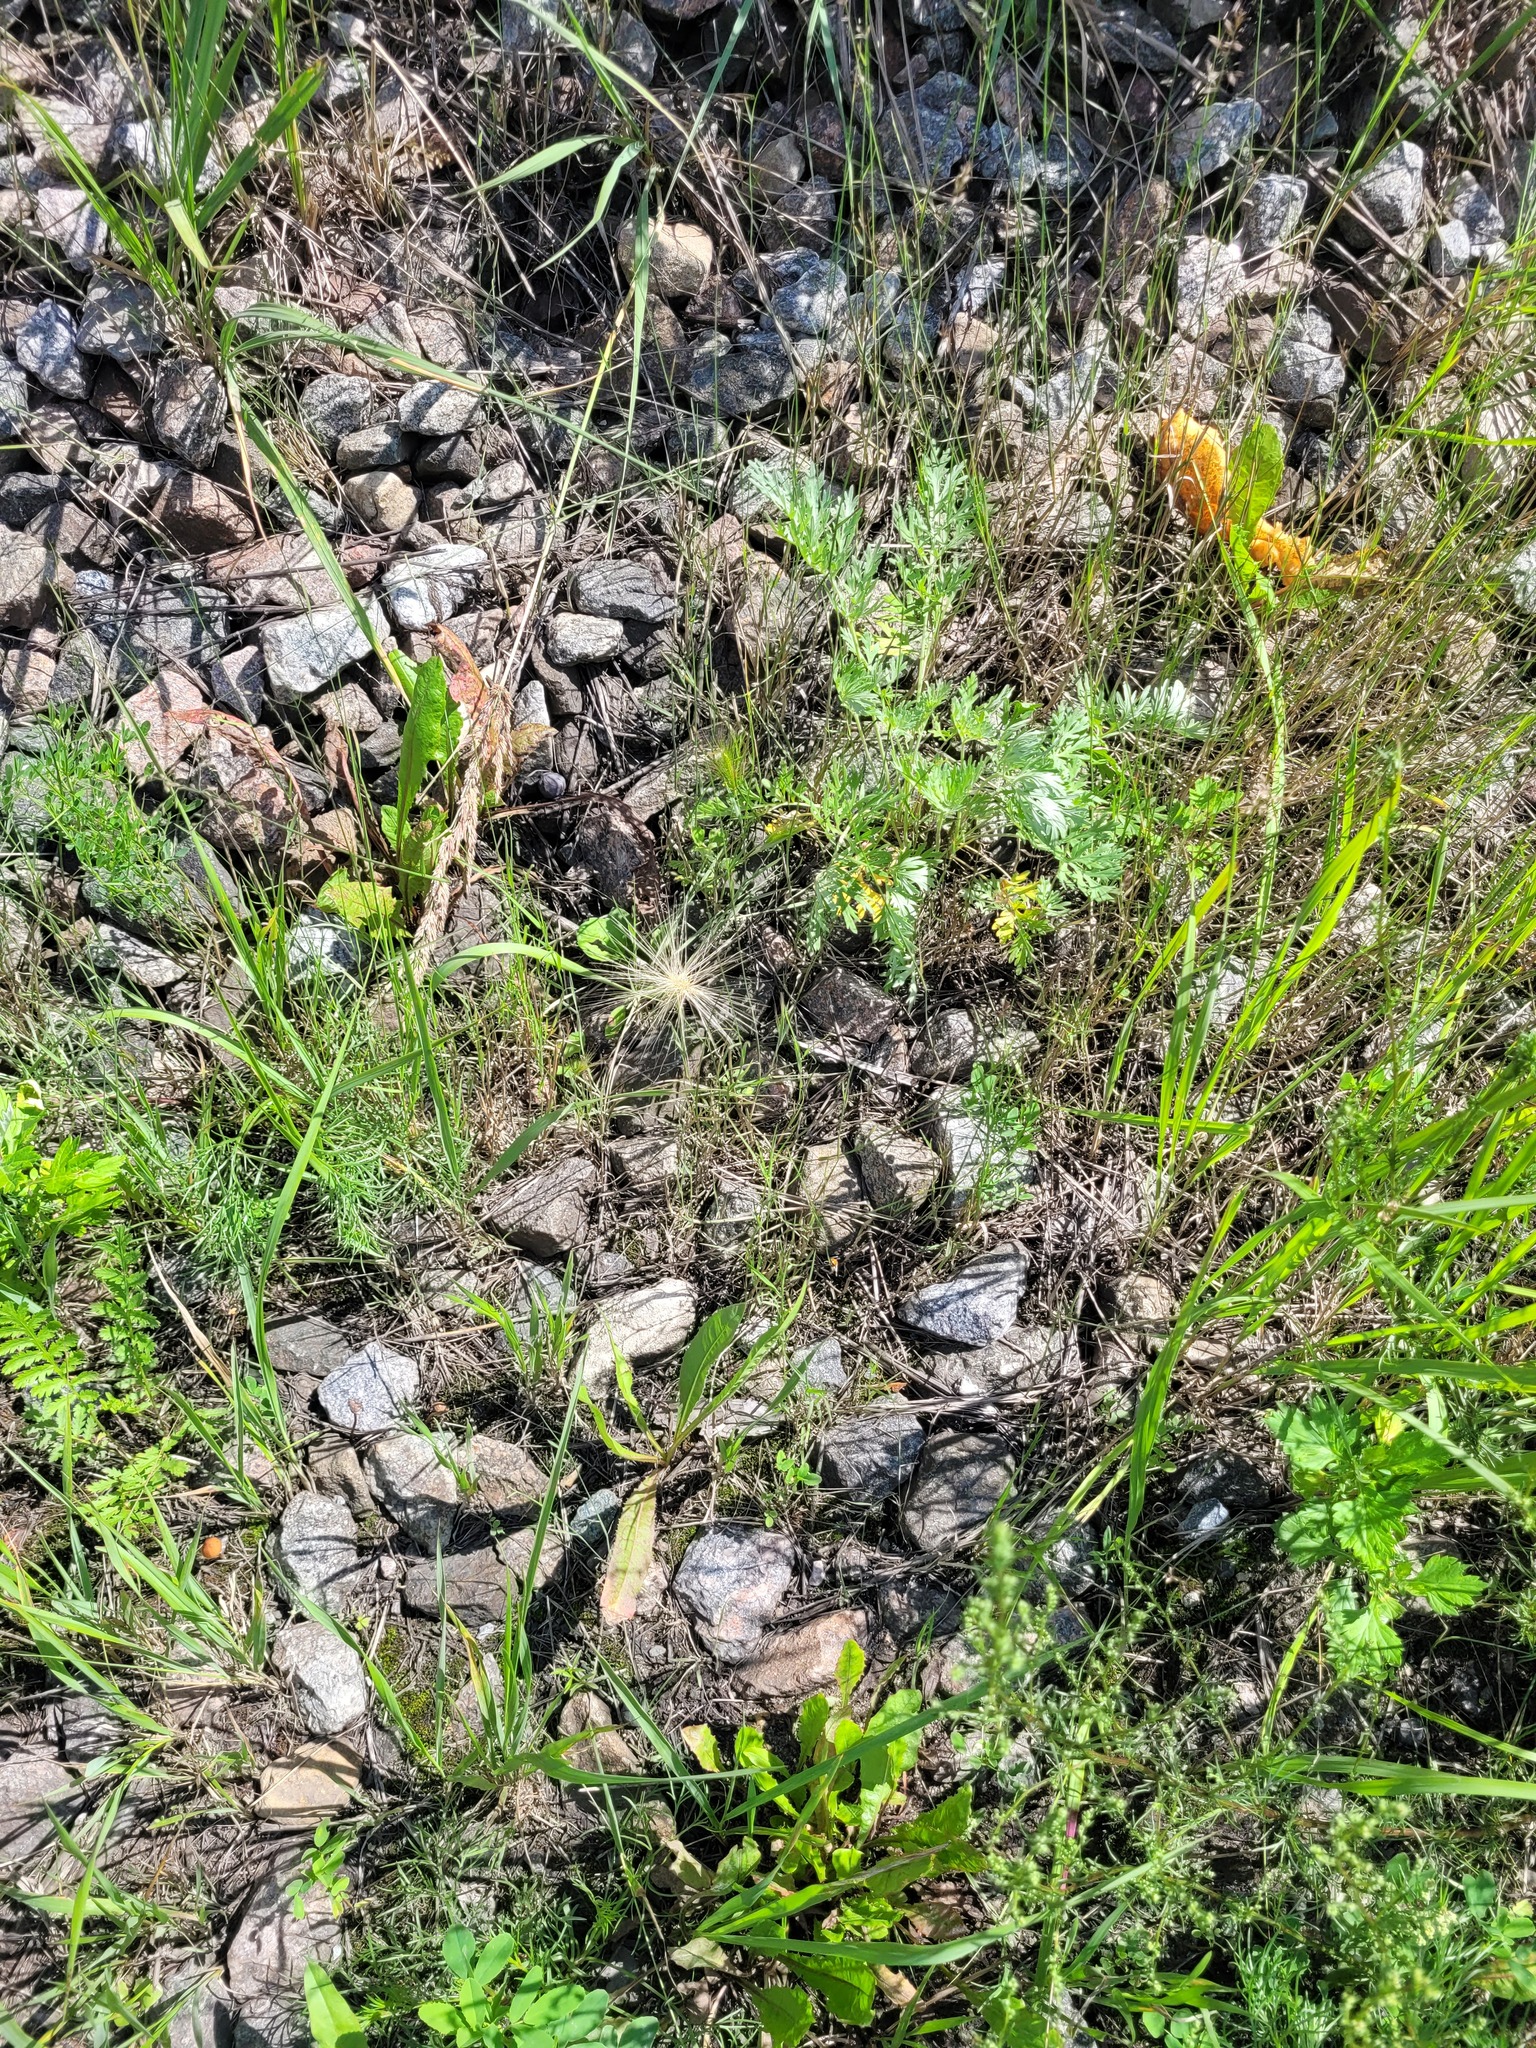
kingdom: Plantae
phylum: Tracheophyta
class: Liliopsida
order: Poales
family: Poaceae
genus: Hordeum
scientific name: Hordeum jubatum
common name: Foxtail barley
